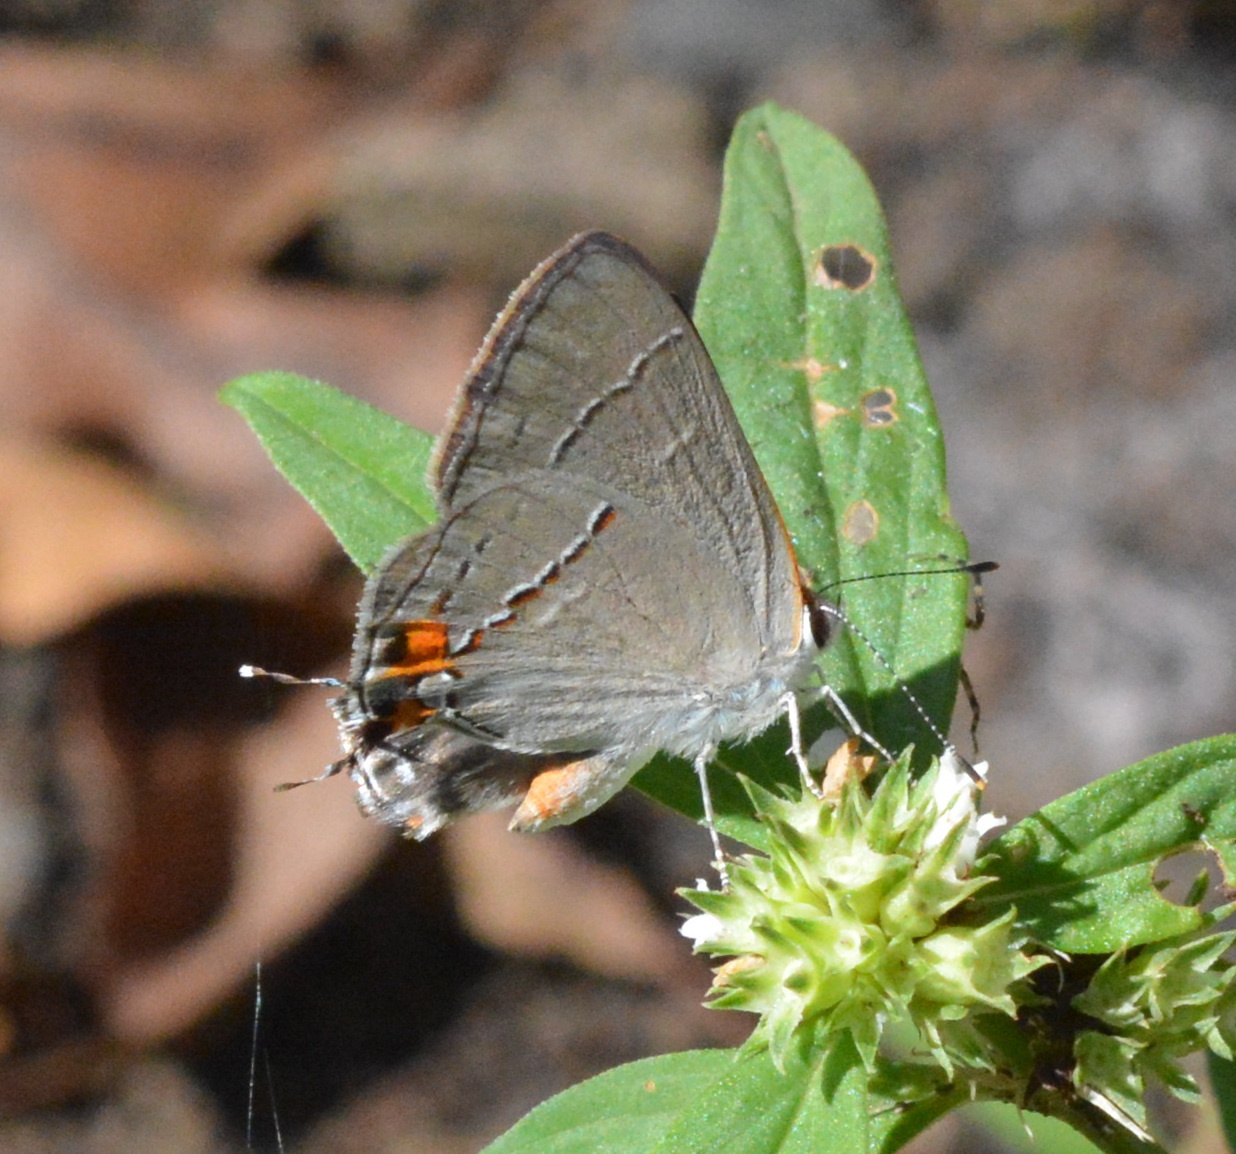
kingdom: Animalia
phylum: Arthropoda
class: Insecta
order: Lepidoptera
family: Lycaenidae
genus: Strymon
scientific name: Strymon melinus
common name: Gray hairstreak
